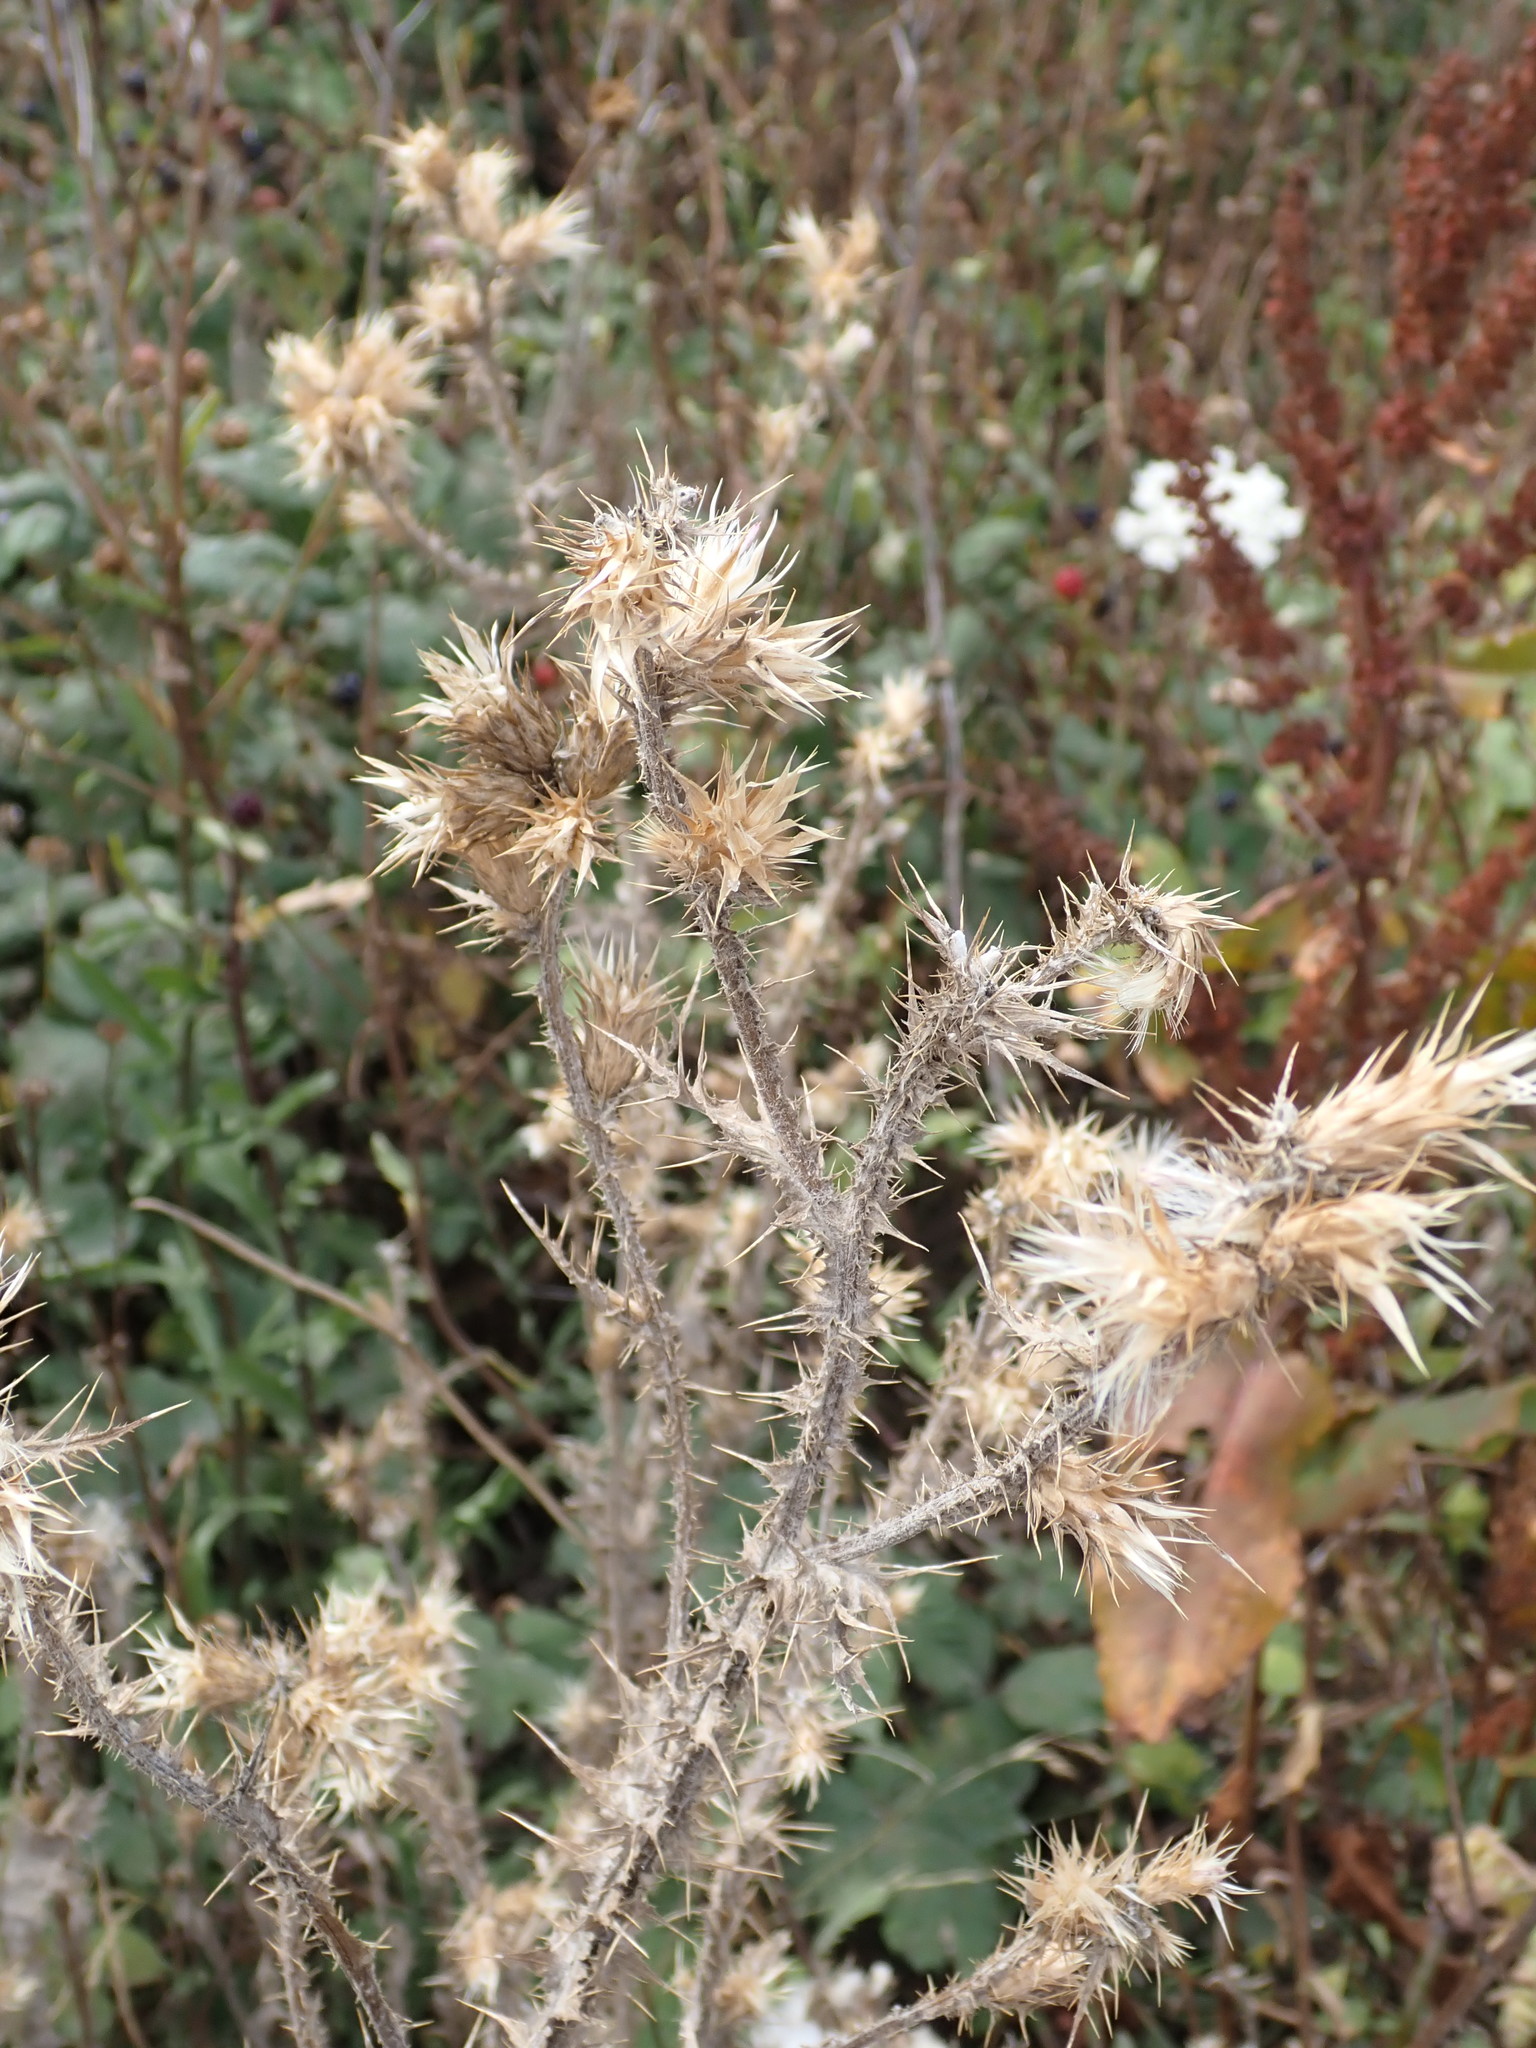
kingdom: Plantae
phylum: Tracheophyta
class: Magnoliopsida
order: Asterales
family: Asteraceae
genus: Carduus
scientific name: Carduus tenuiflorus
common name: Slender thistle
